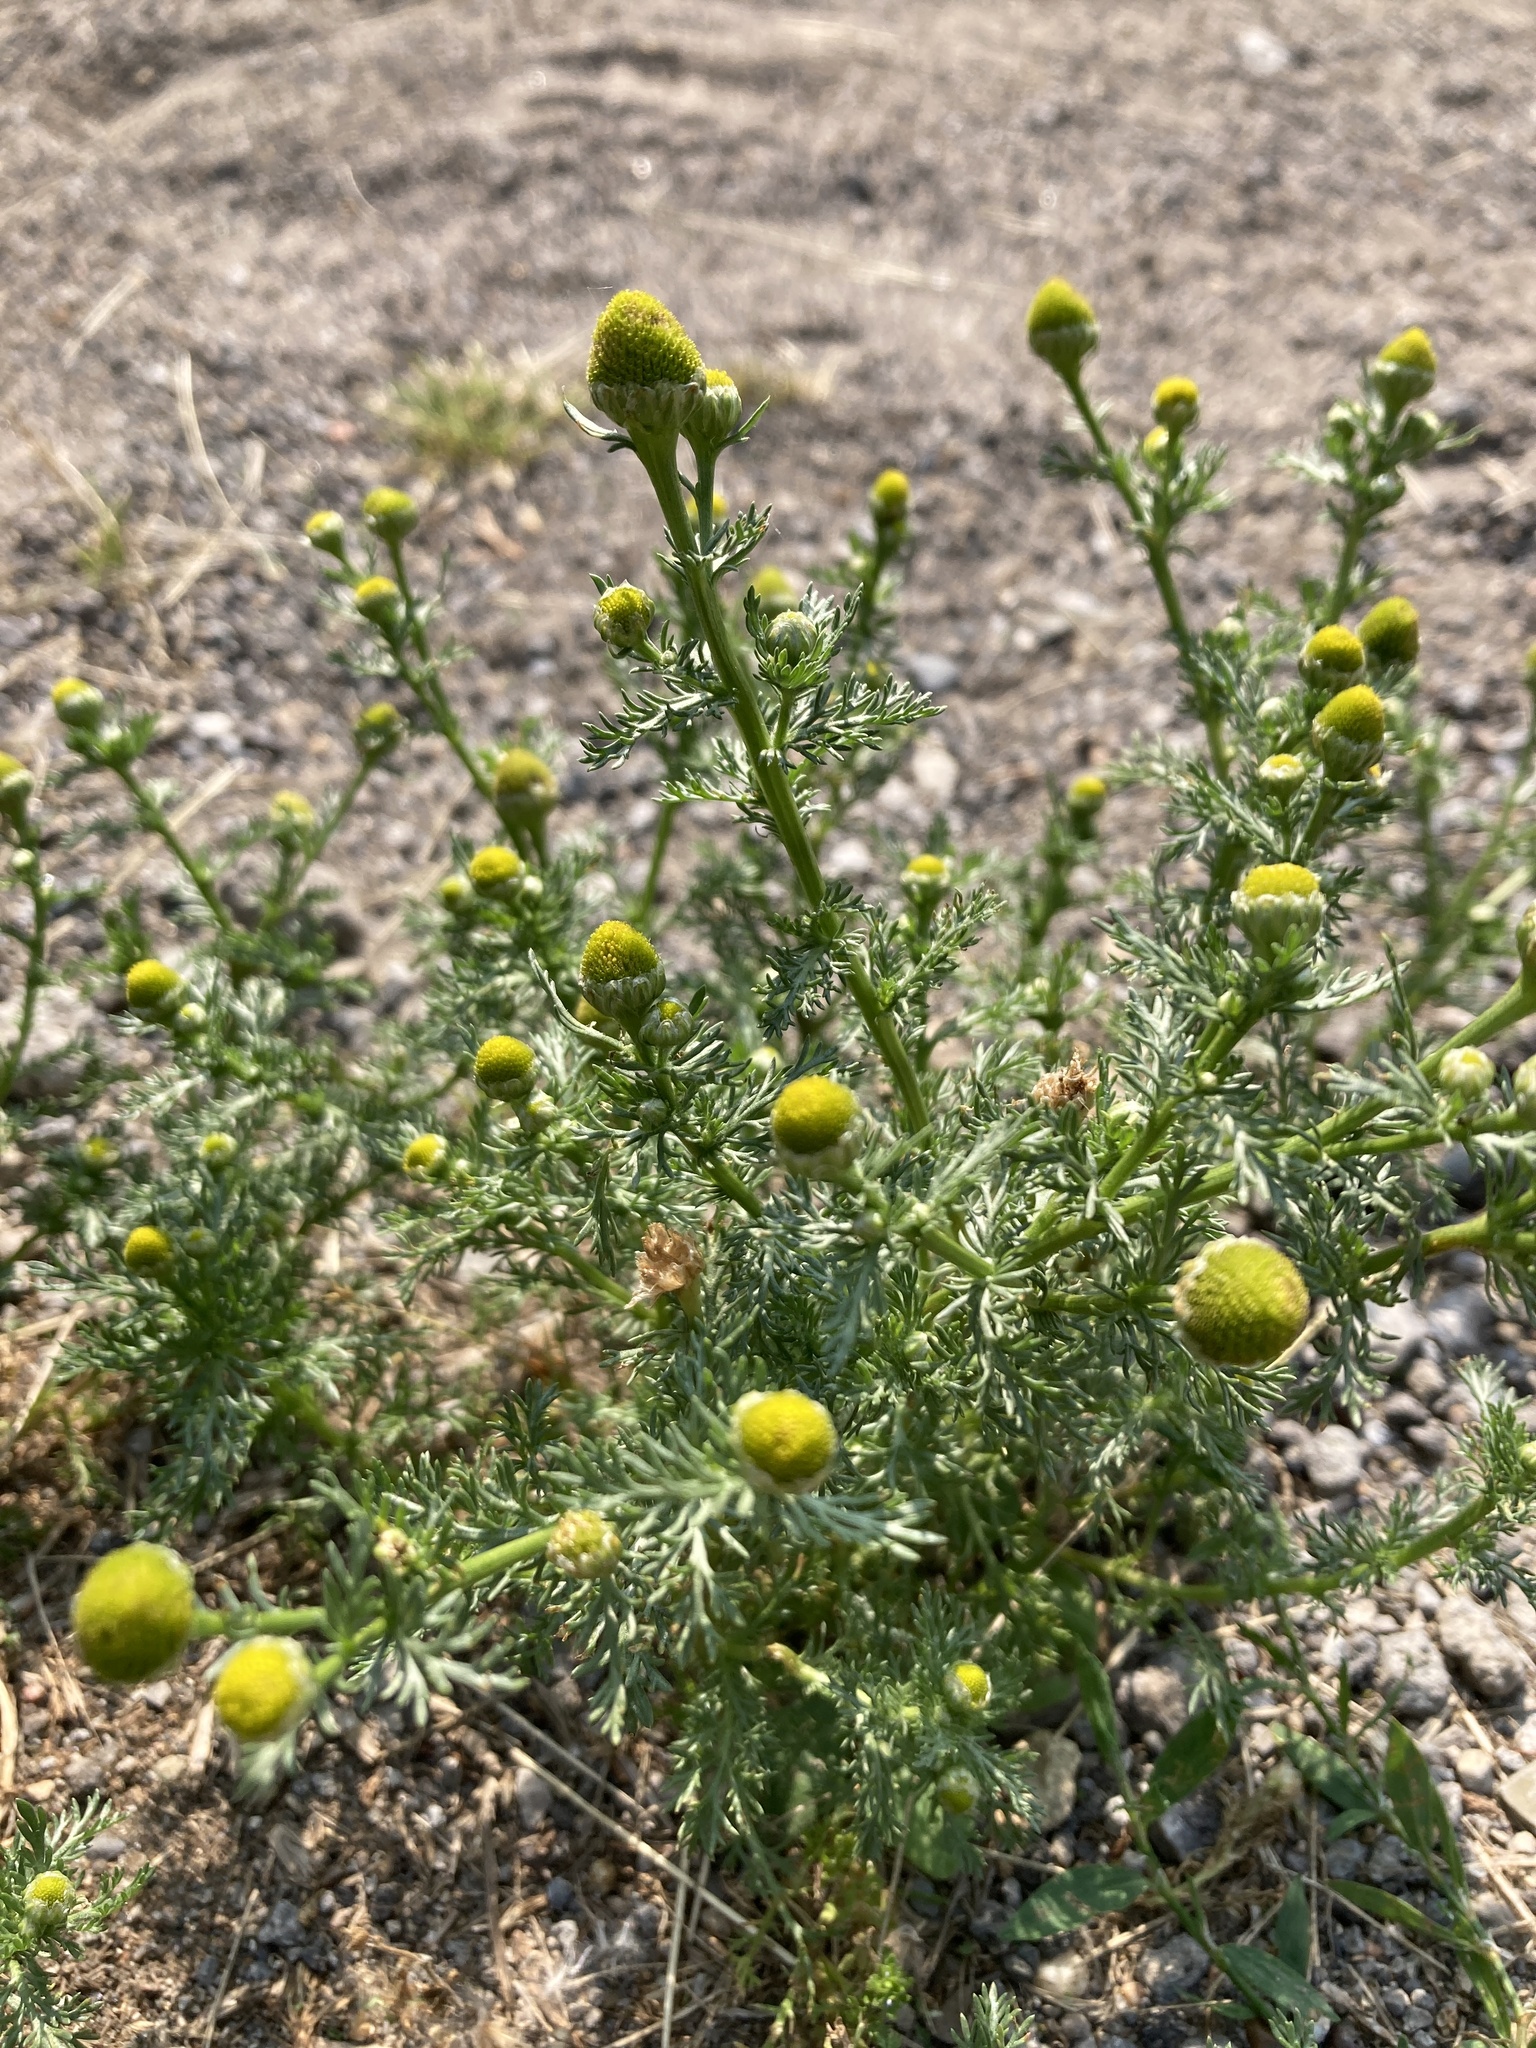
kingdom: Plantae
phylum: Tracheophyta
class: Magnoliopsida
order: Asterales
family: Asteraceae
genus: Matricaria
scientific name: Matricaria discoidea
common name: Disc mayweed
